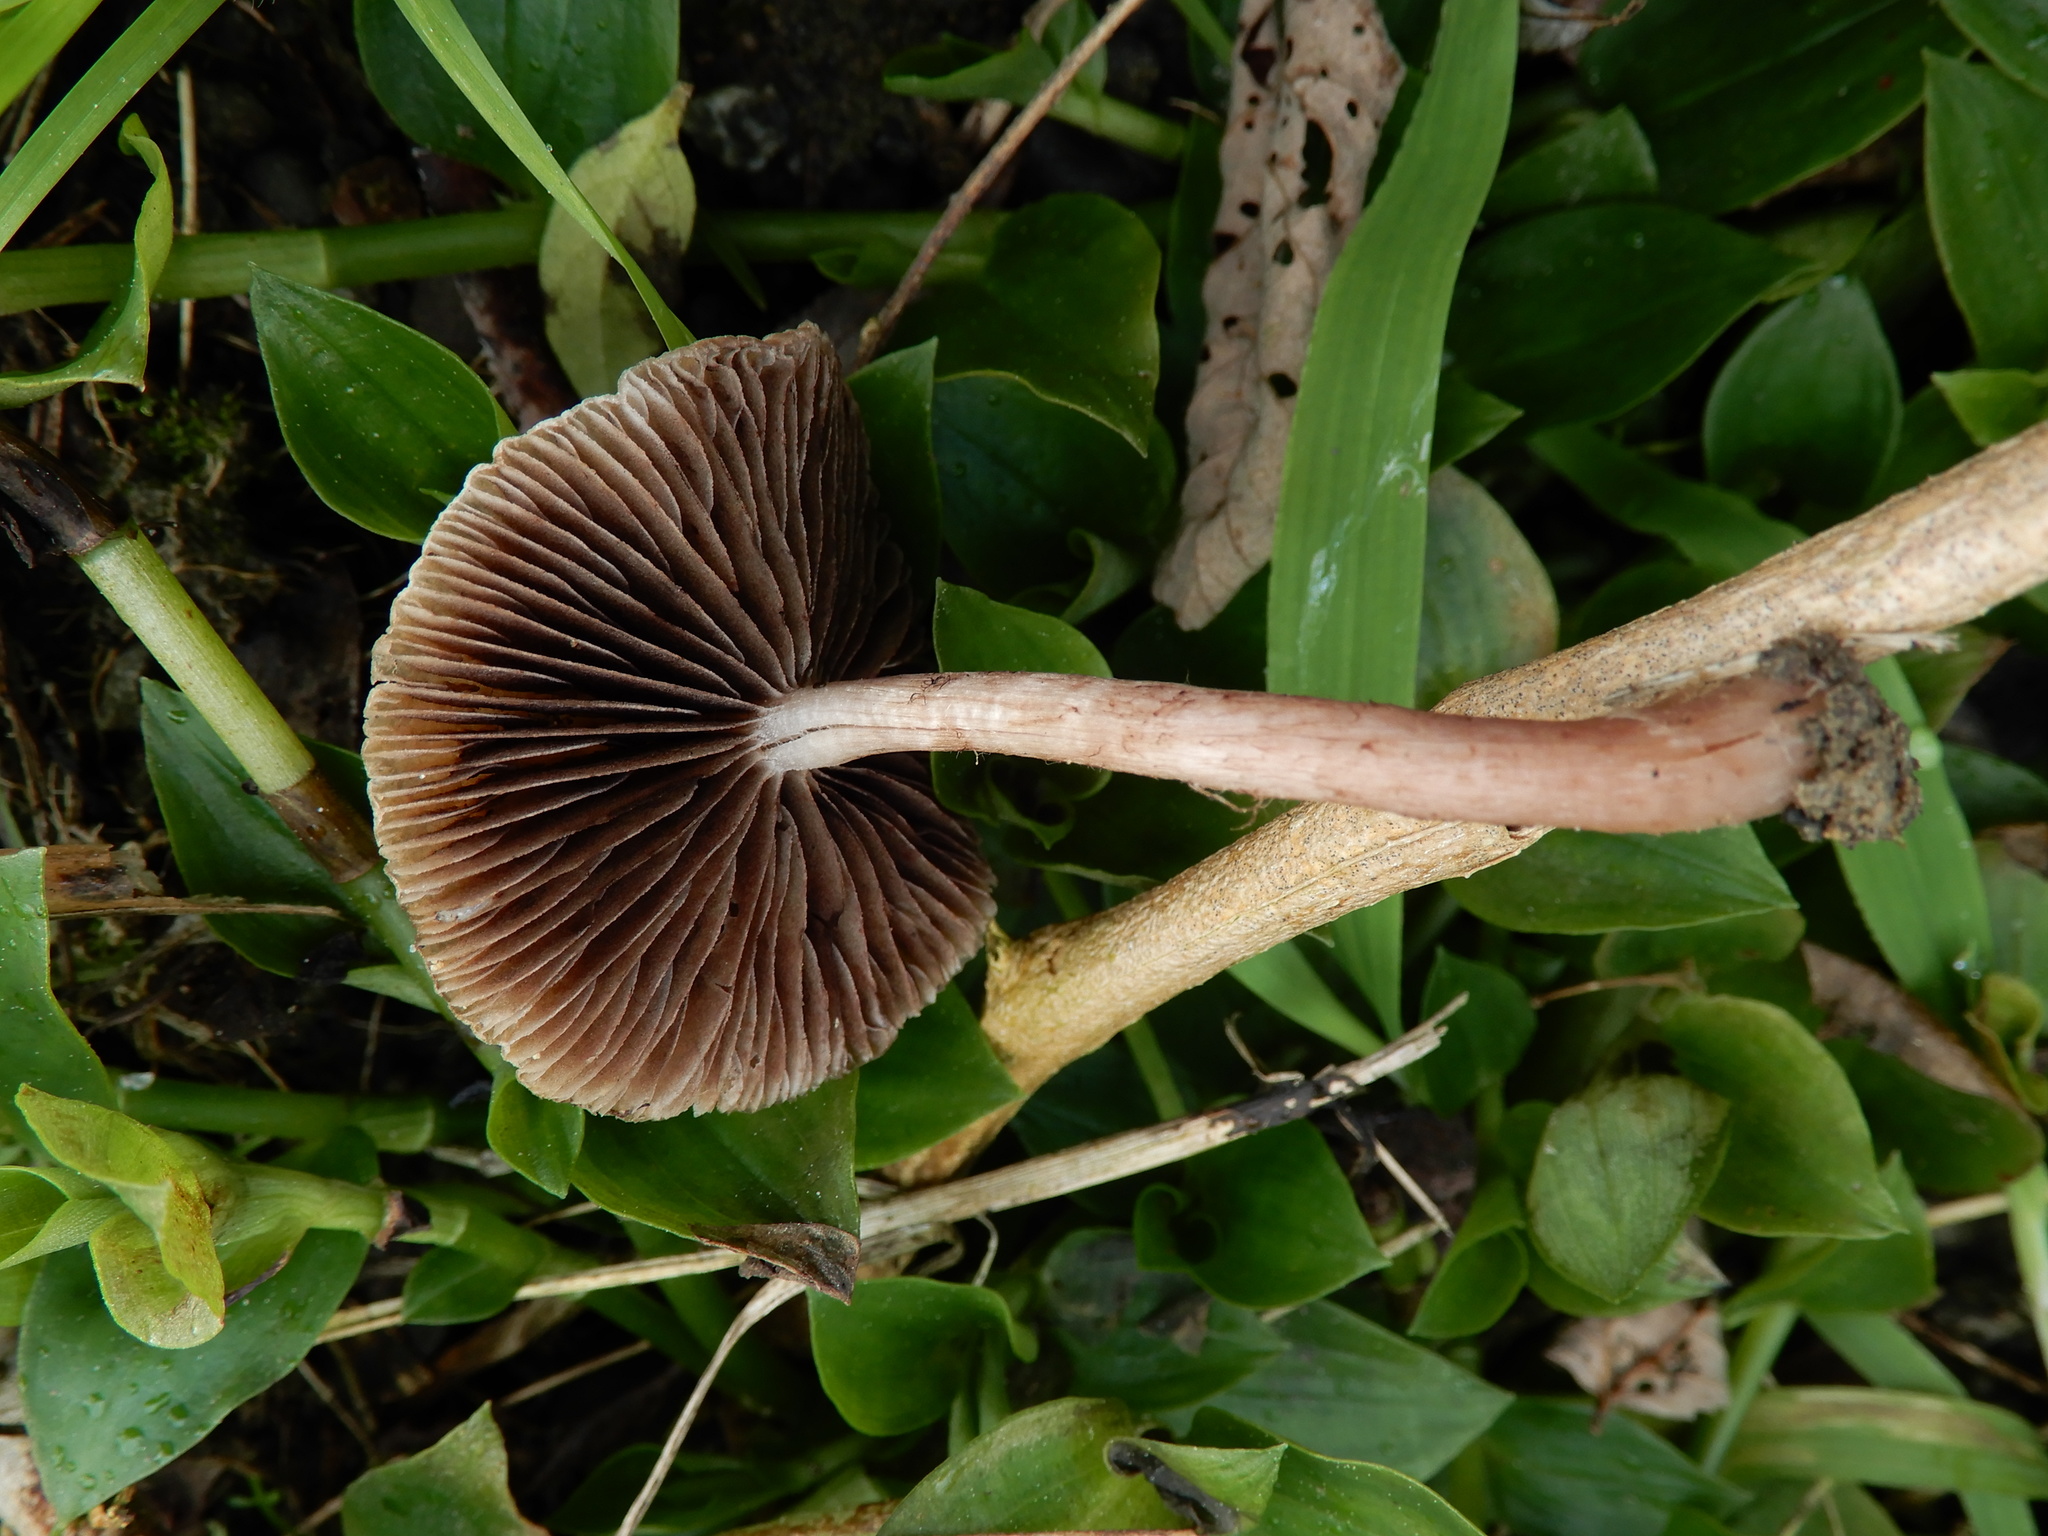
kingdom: Fungi
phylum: Basidiomycota
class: Agaricomycetes
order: Agaricales
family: Psathyrellaceae
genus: Psathyrella
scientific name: Psathyrella bipellis
